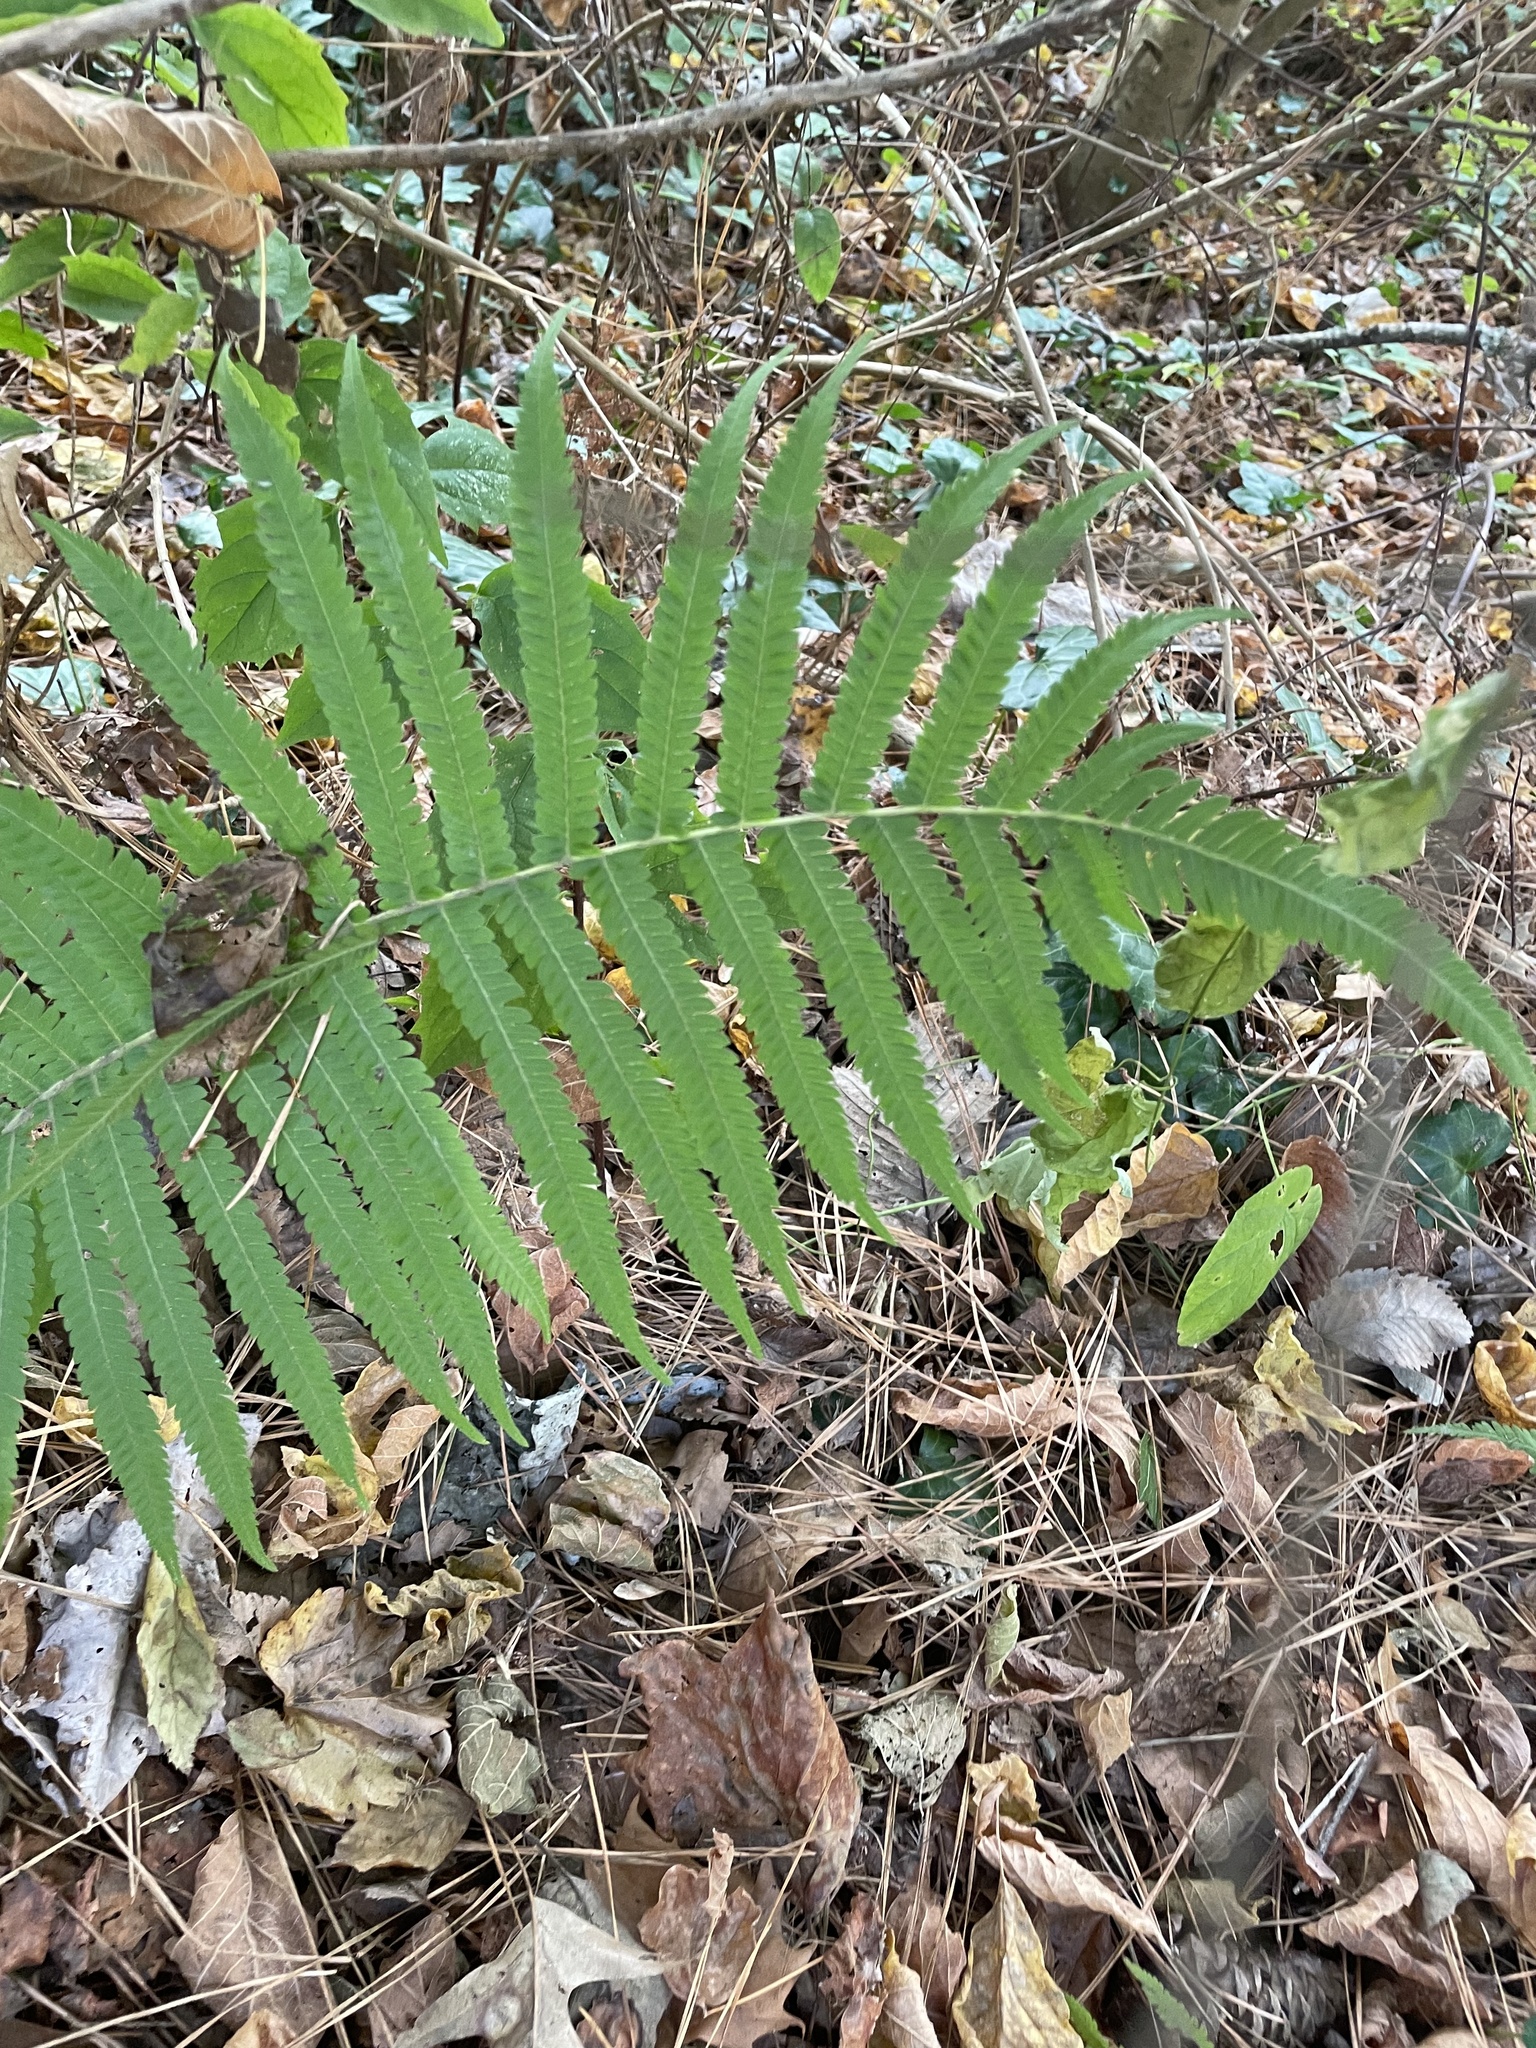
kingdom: Plantae
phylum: Tracheophyta
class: Polypodiopsida
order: Polypodiales
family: Onocleaceae
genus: Onoclea
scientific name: Onoclea sensibilis
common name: Sensitive fern
